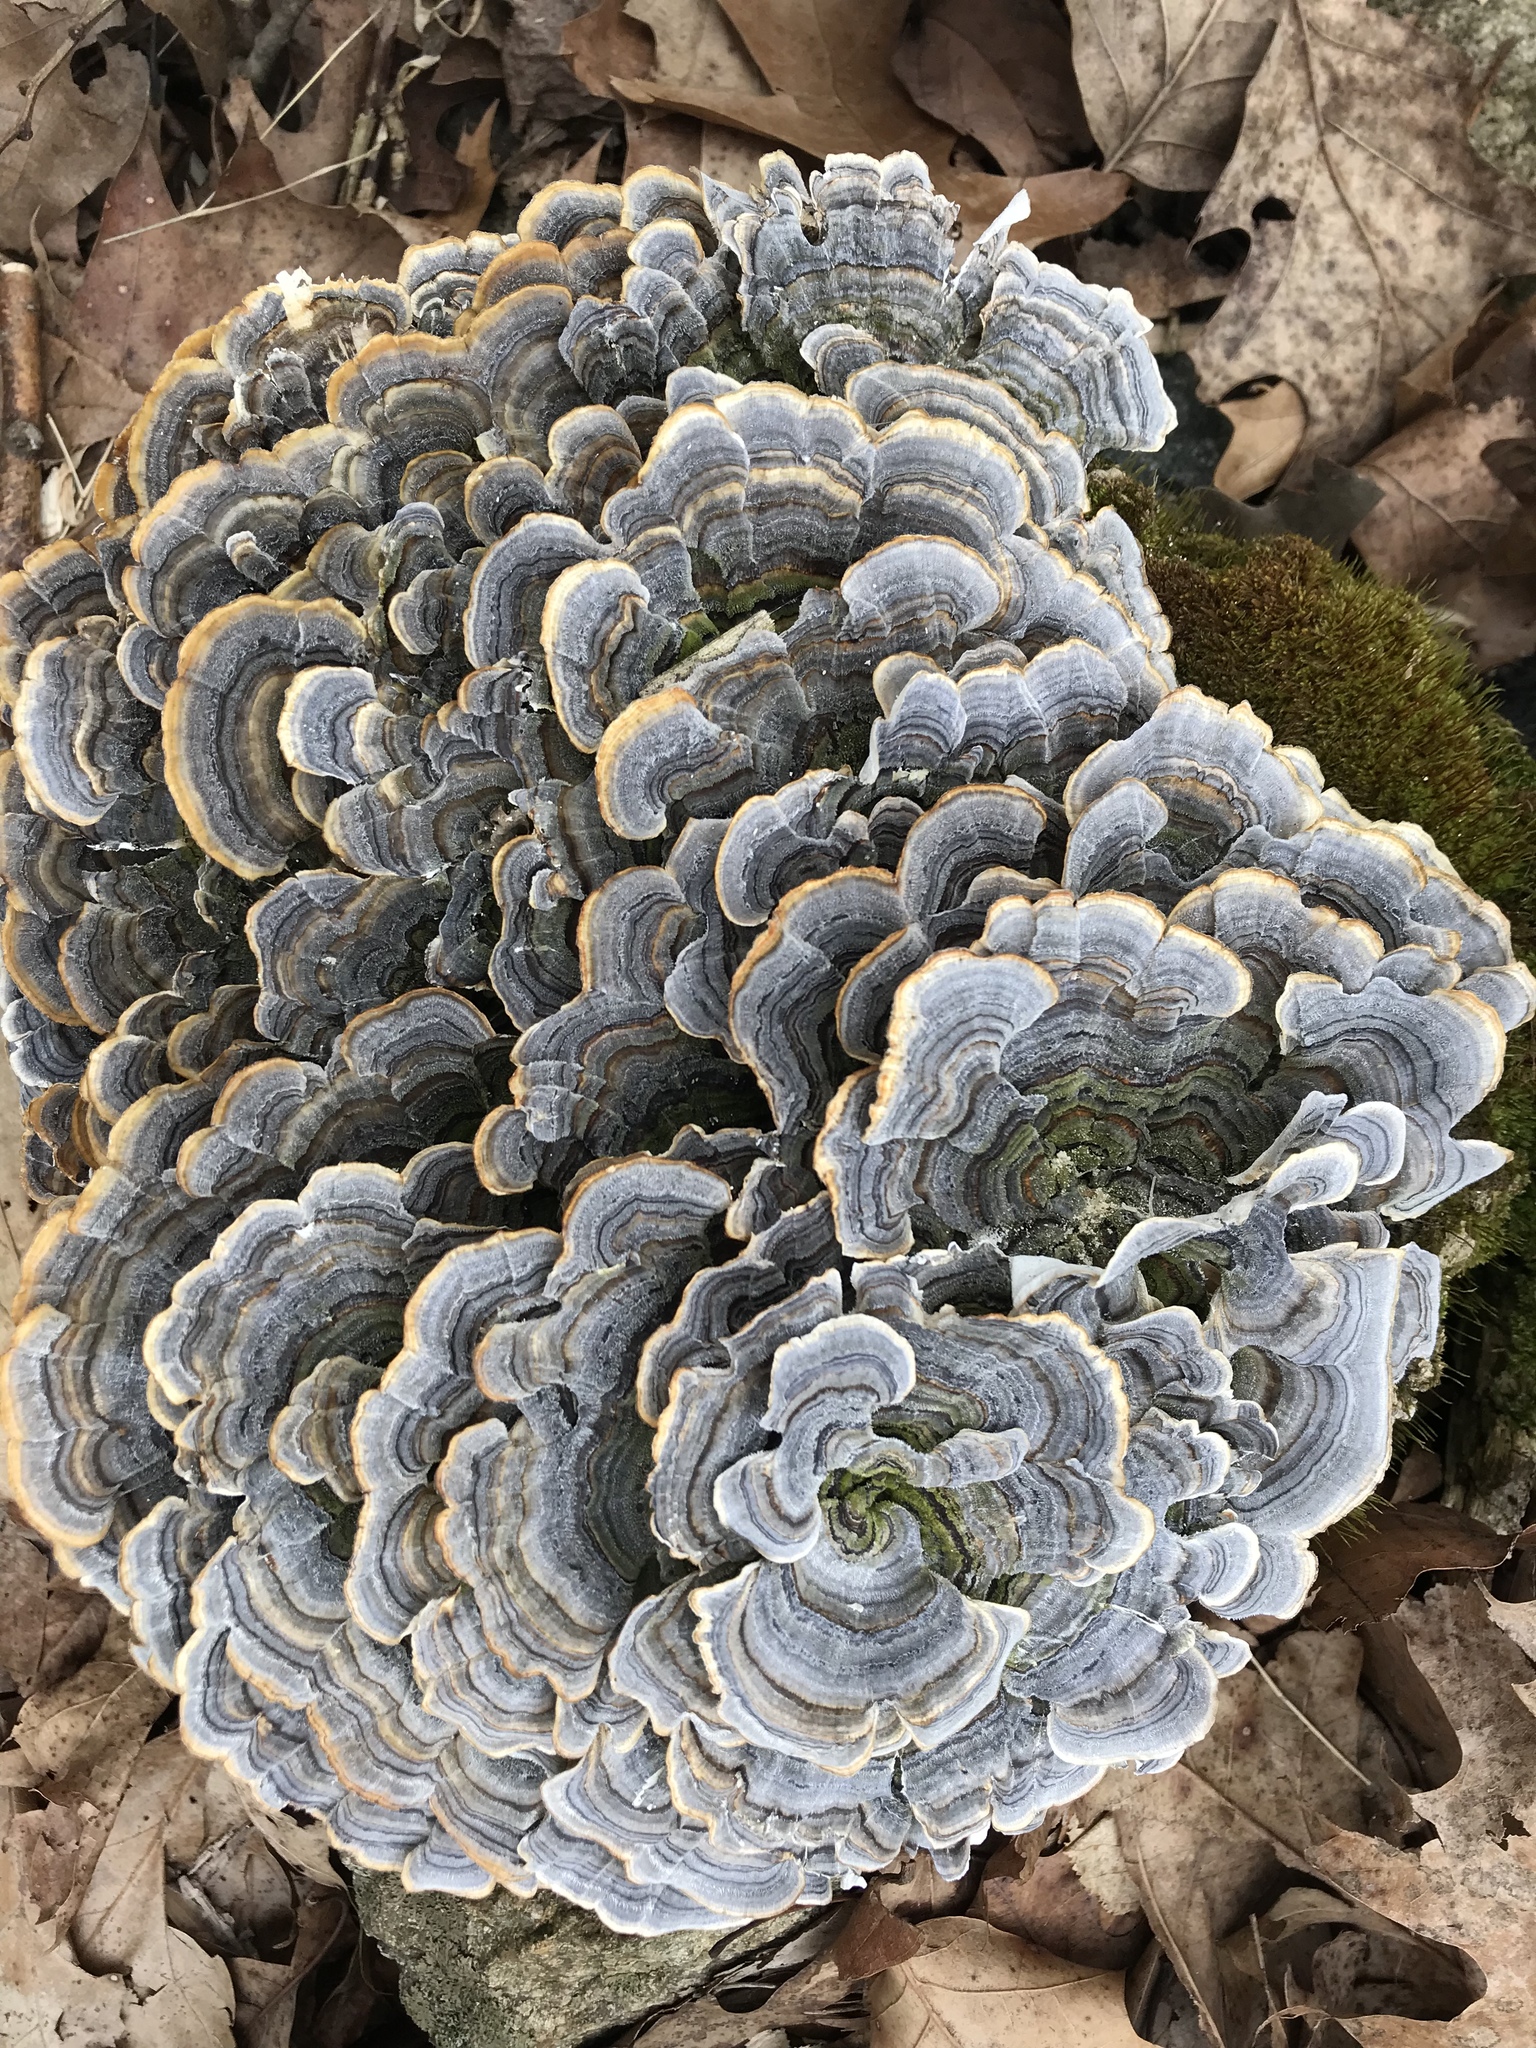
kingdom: Fungi
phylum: Basidiomycota
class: Agaricomycetes
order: Polyporales
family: Polyporaceae
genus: Trametes
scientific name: Trametes versicolor
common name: Turkeytail
